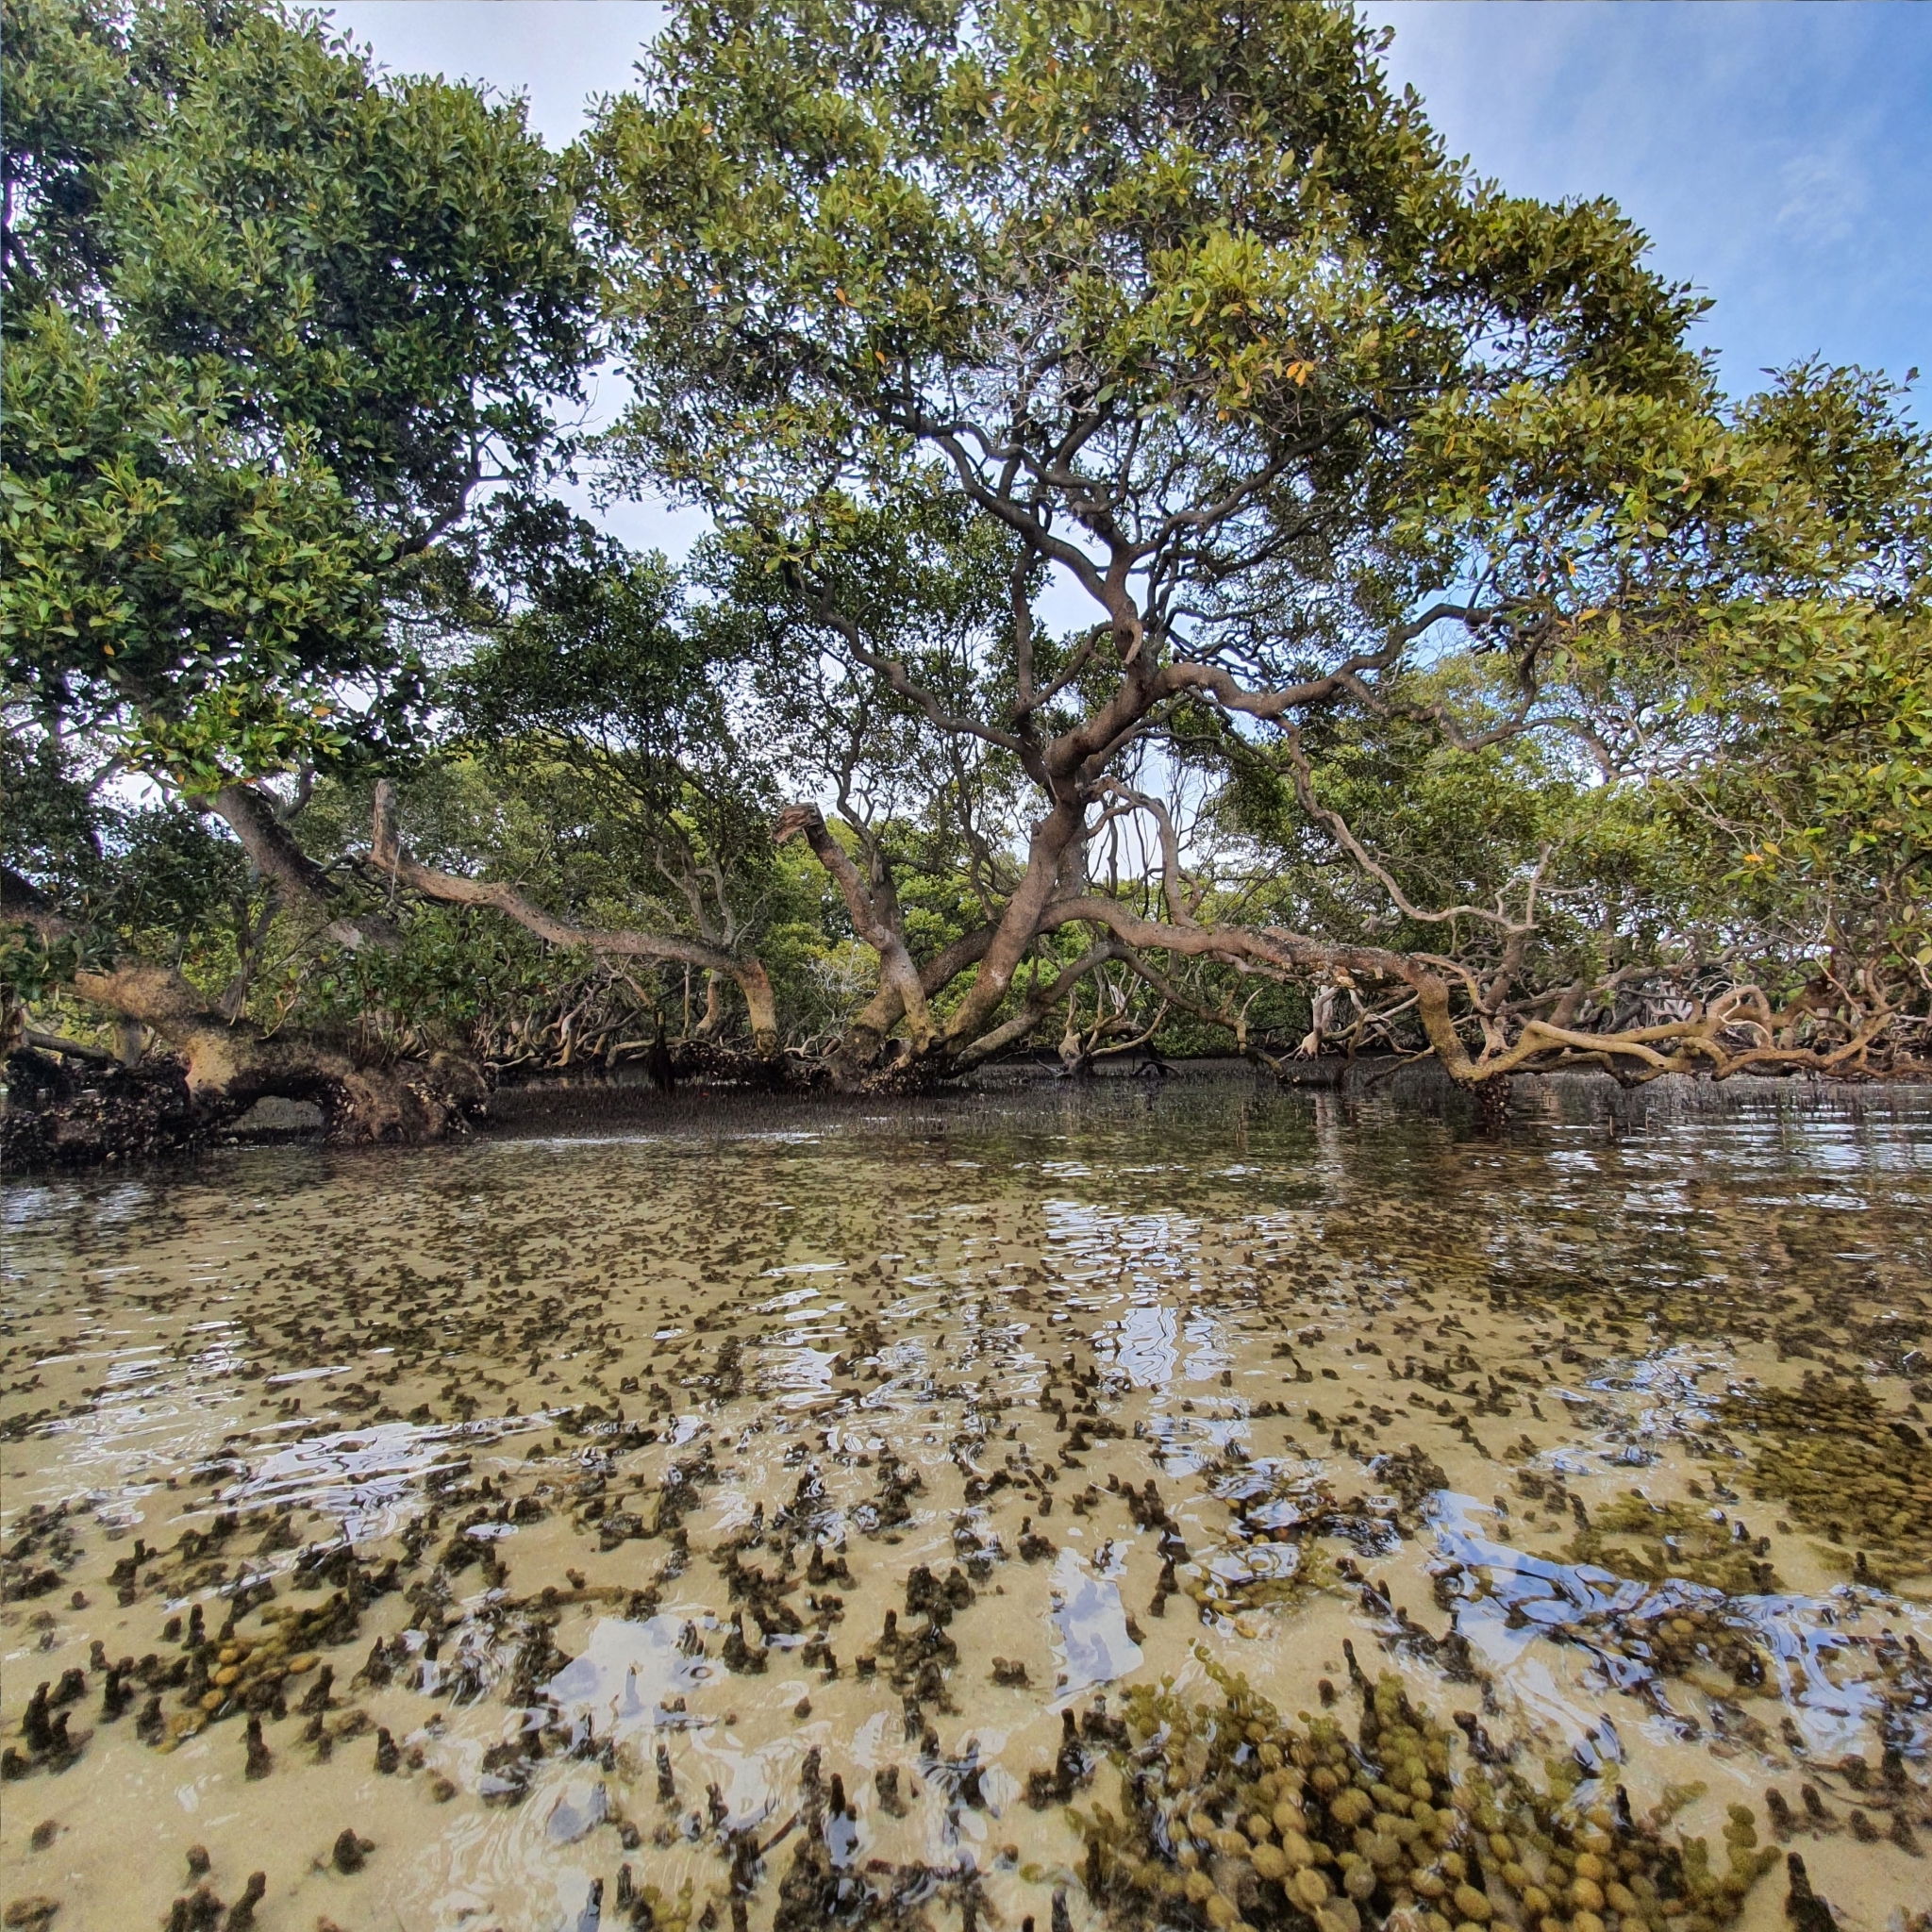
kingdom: Plantae
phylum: Tracheophyta
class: Magnoliopsida
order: Lamiales
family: Acanthaceae
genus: Avicennia
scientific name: Avicennia marina
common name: Gray mangrove
